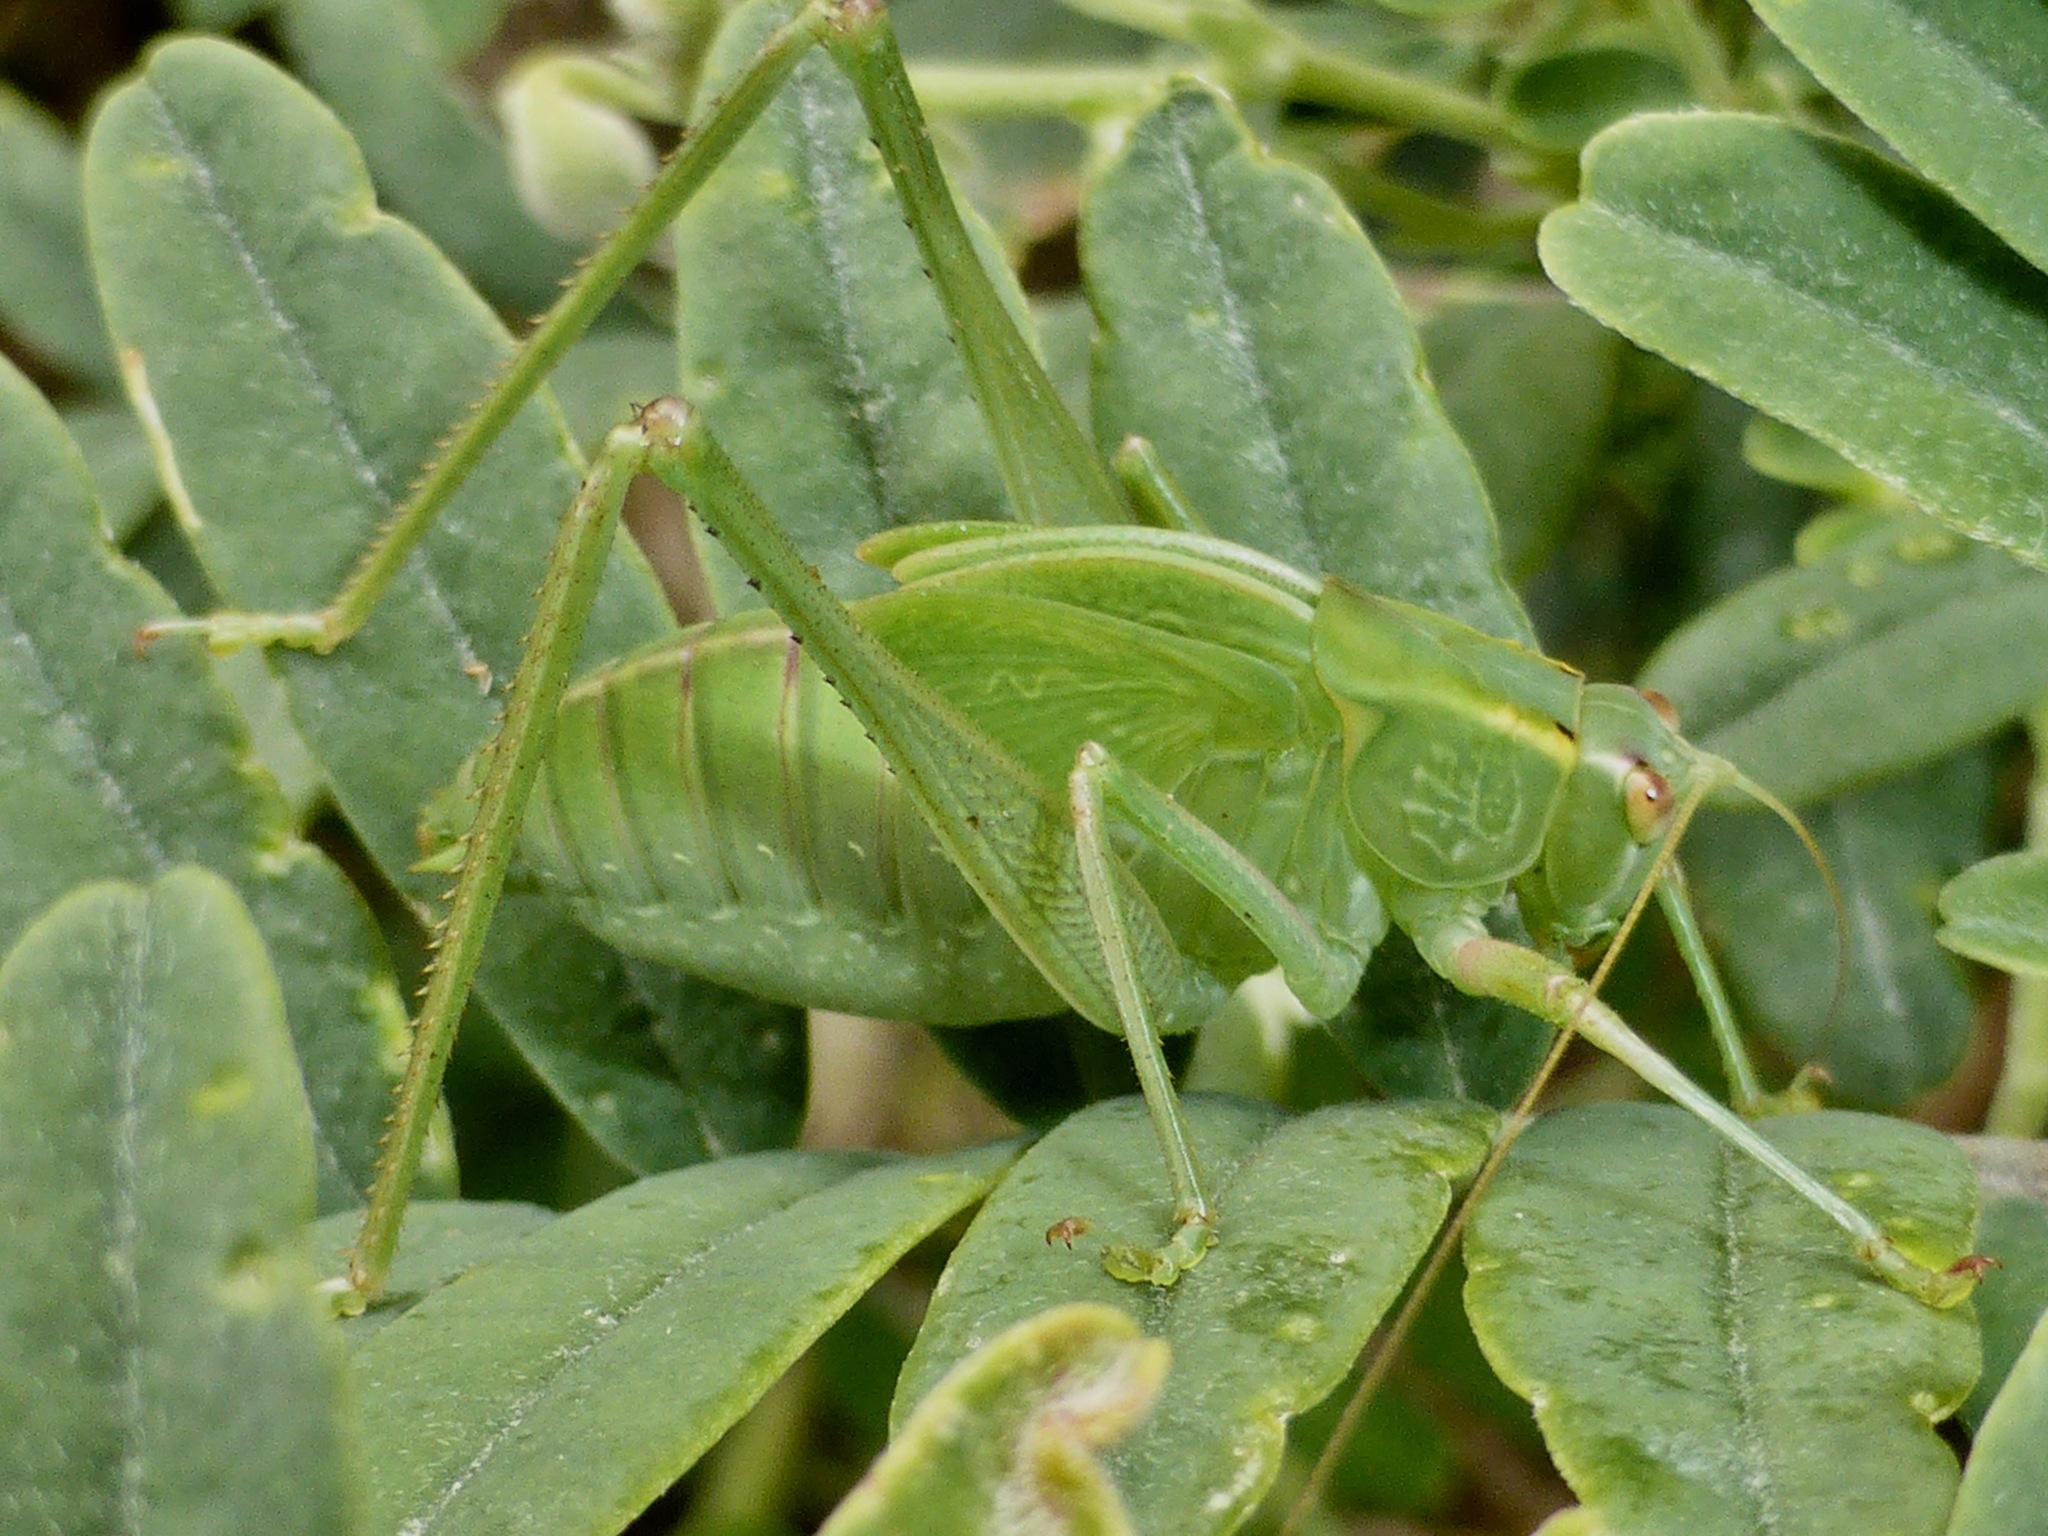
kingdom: Animalia
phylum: Arthropoda
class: Insecta
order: Orthoptera
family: Tettigoniidae
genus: Caedicia
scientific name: Caedicia simplex
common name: Common garden katydid
